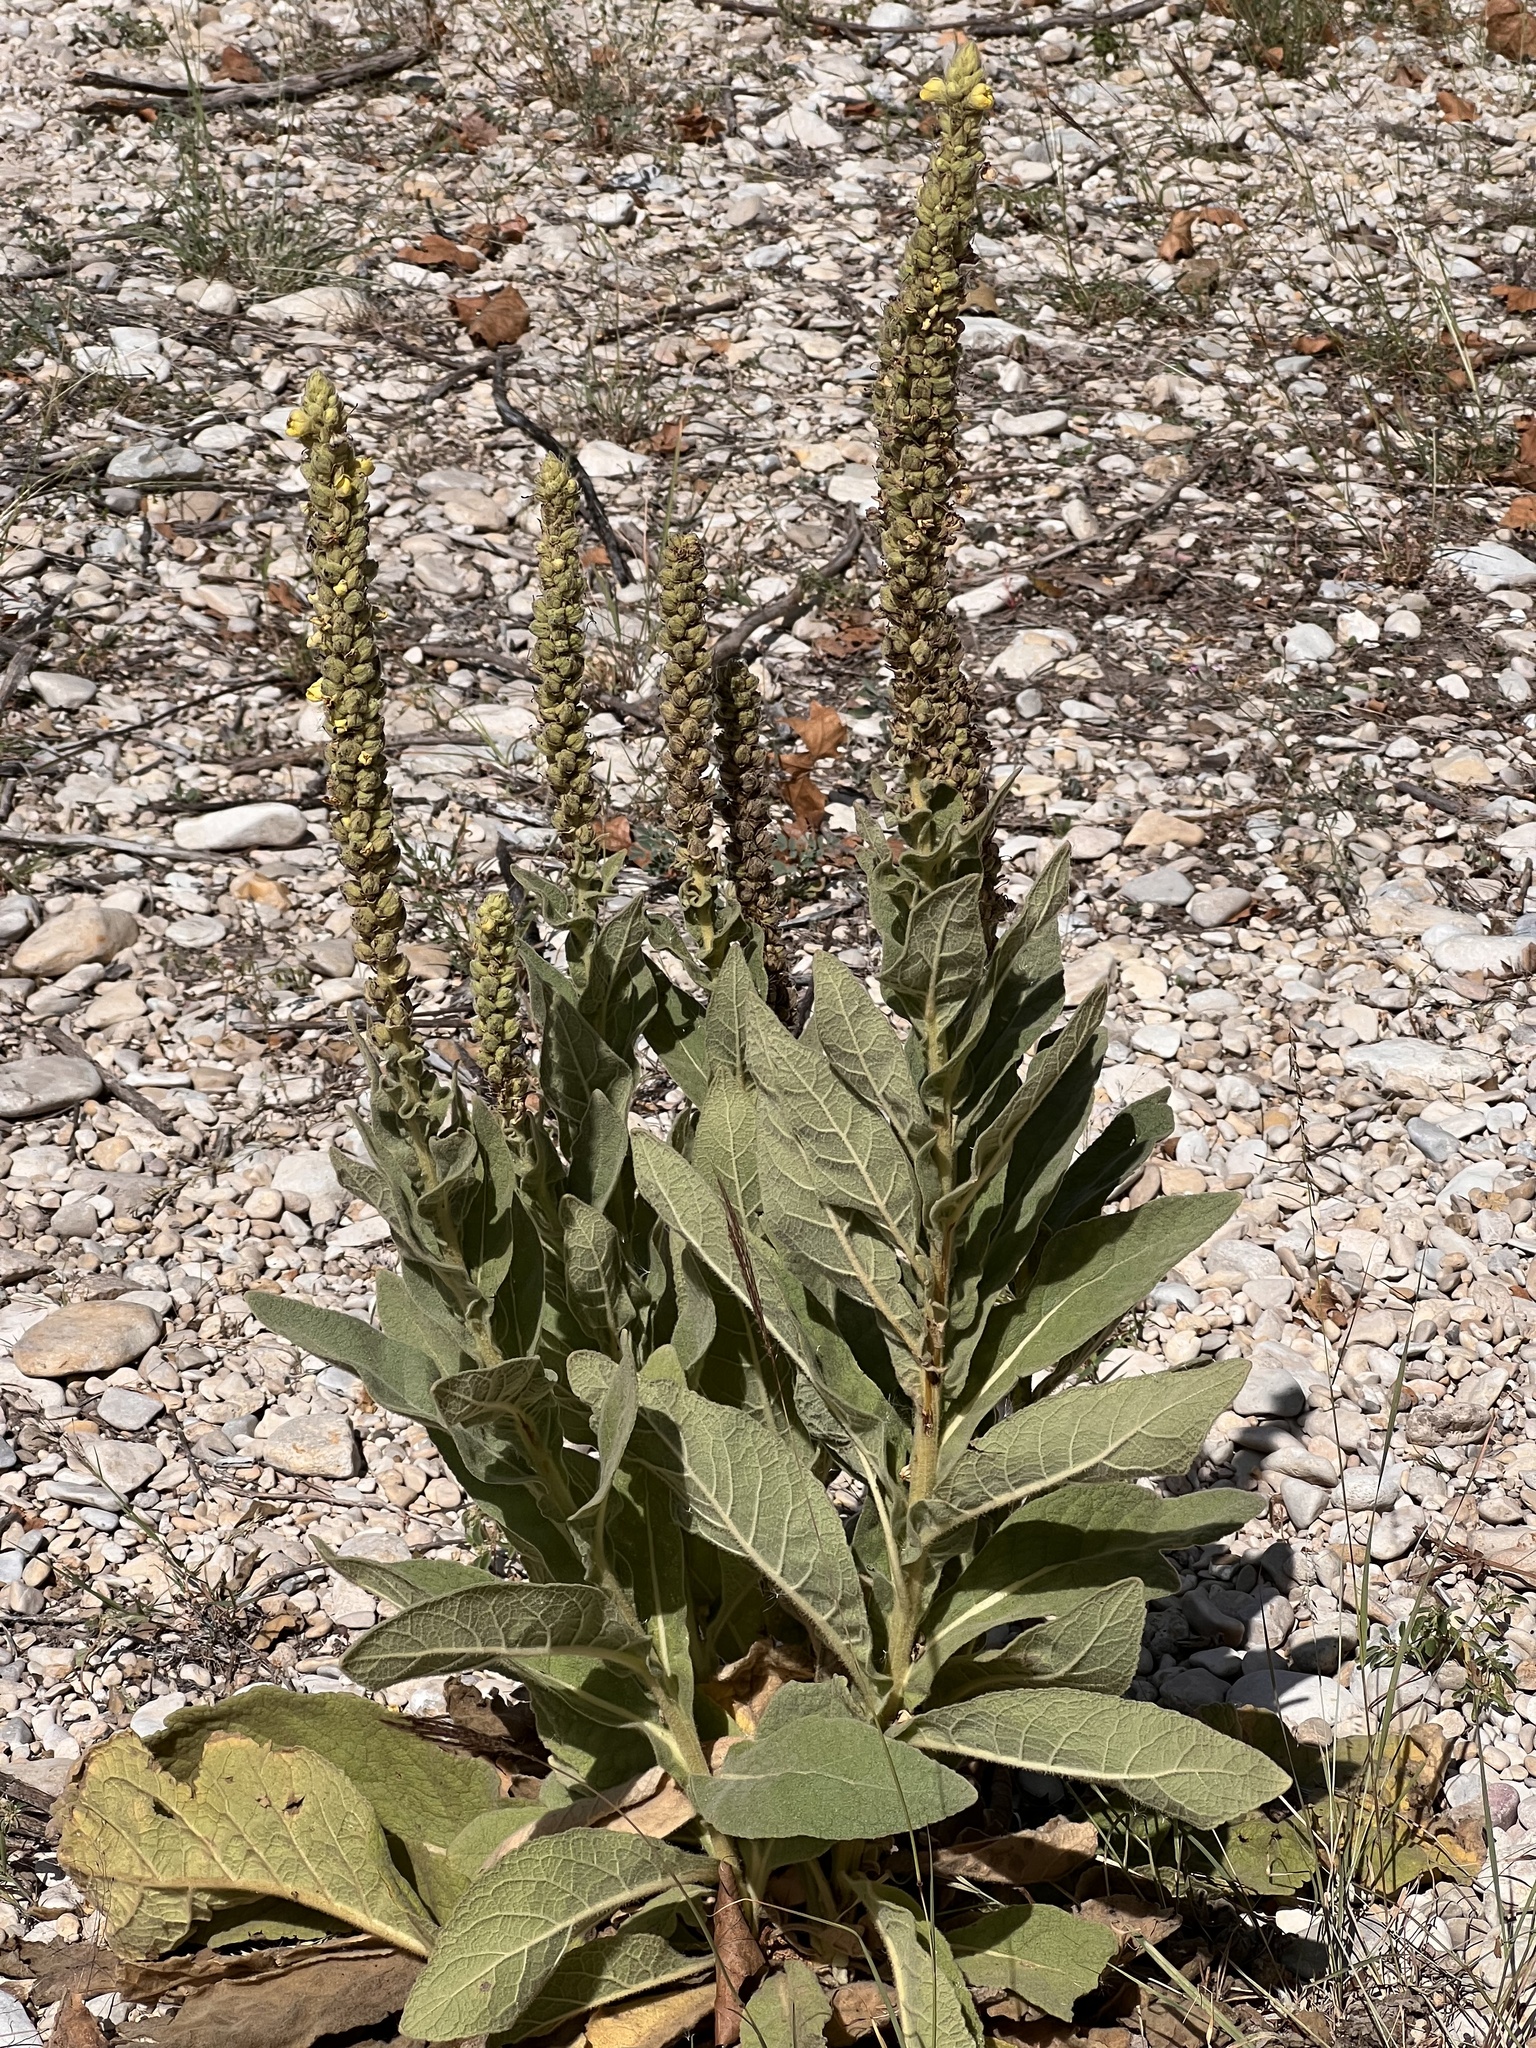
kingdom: Plantae
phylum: Tracheophyta
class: Magnoliopsida
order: Lamiales
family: Scrophulariaceae
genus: Verbascum
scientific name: Verbascum thapsus
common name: Common mullein
